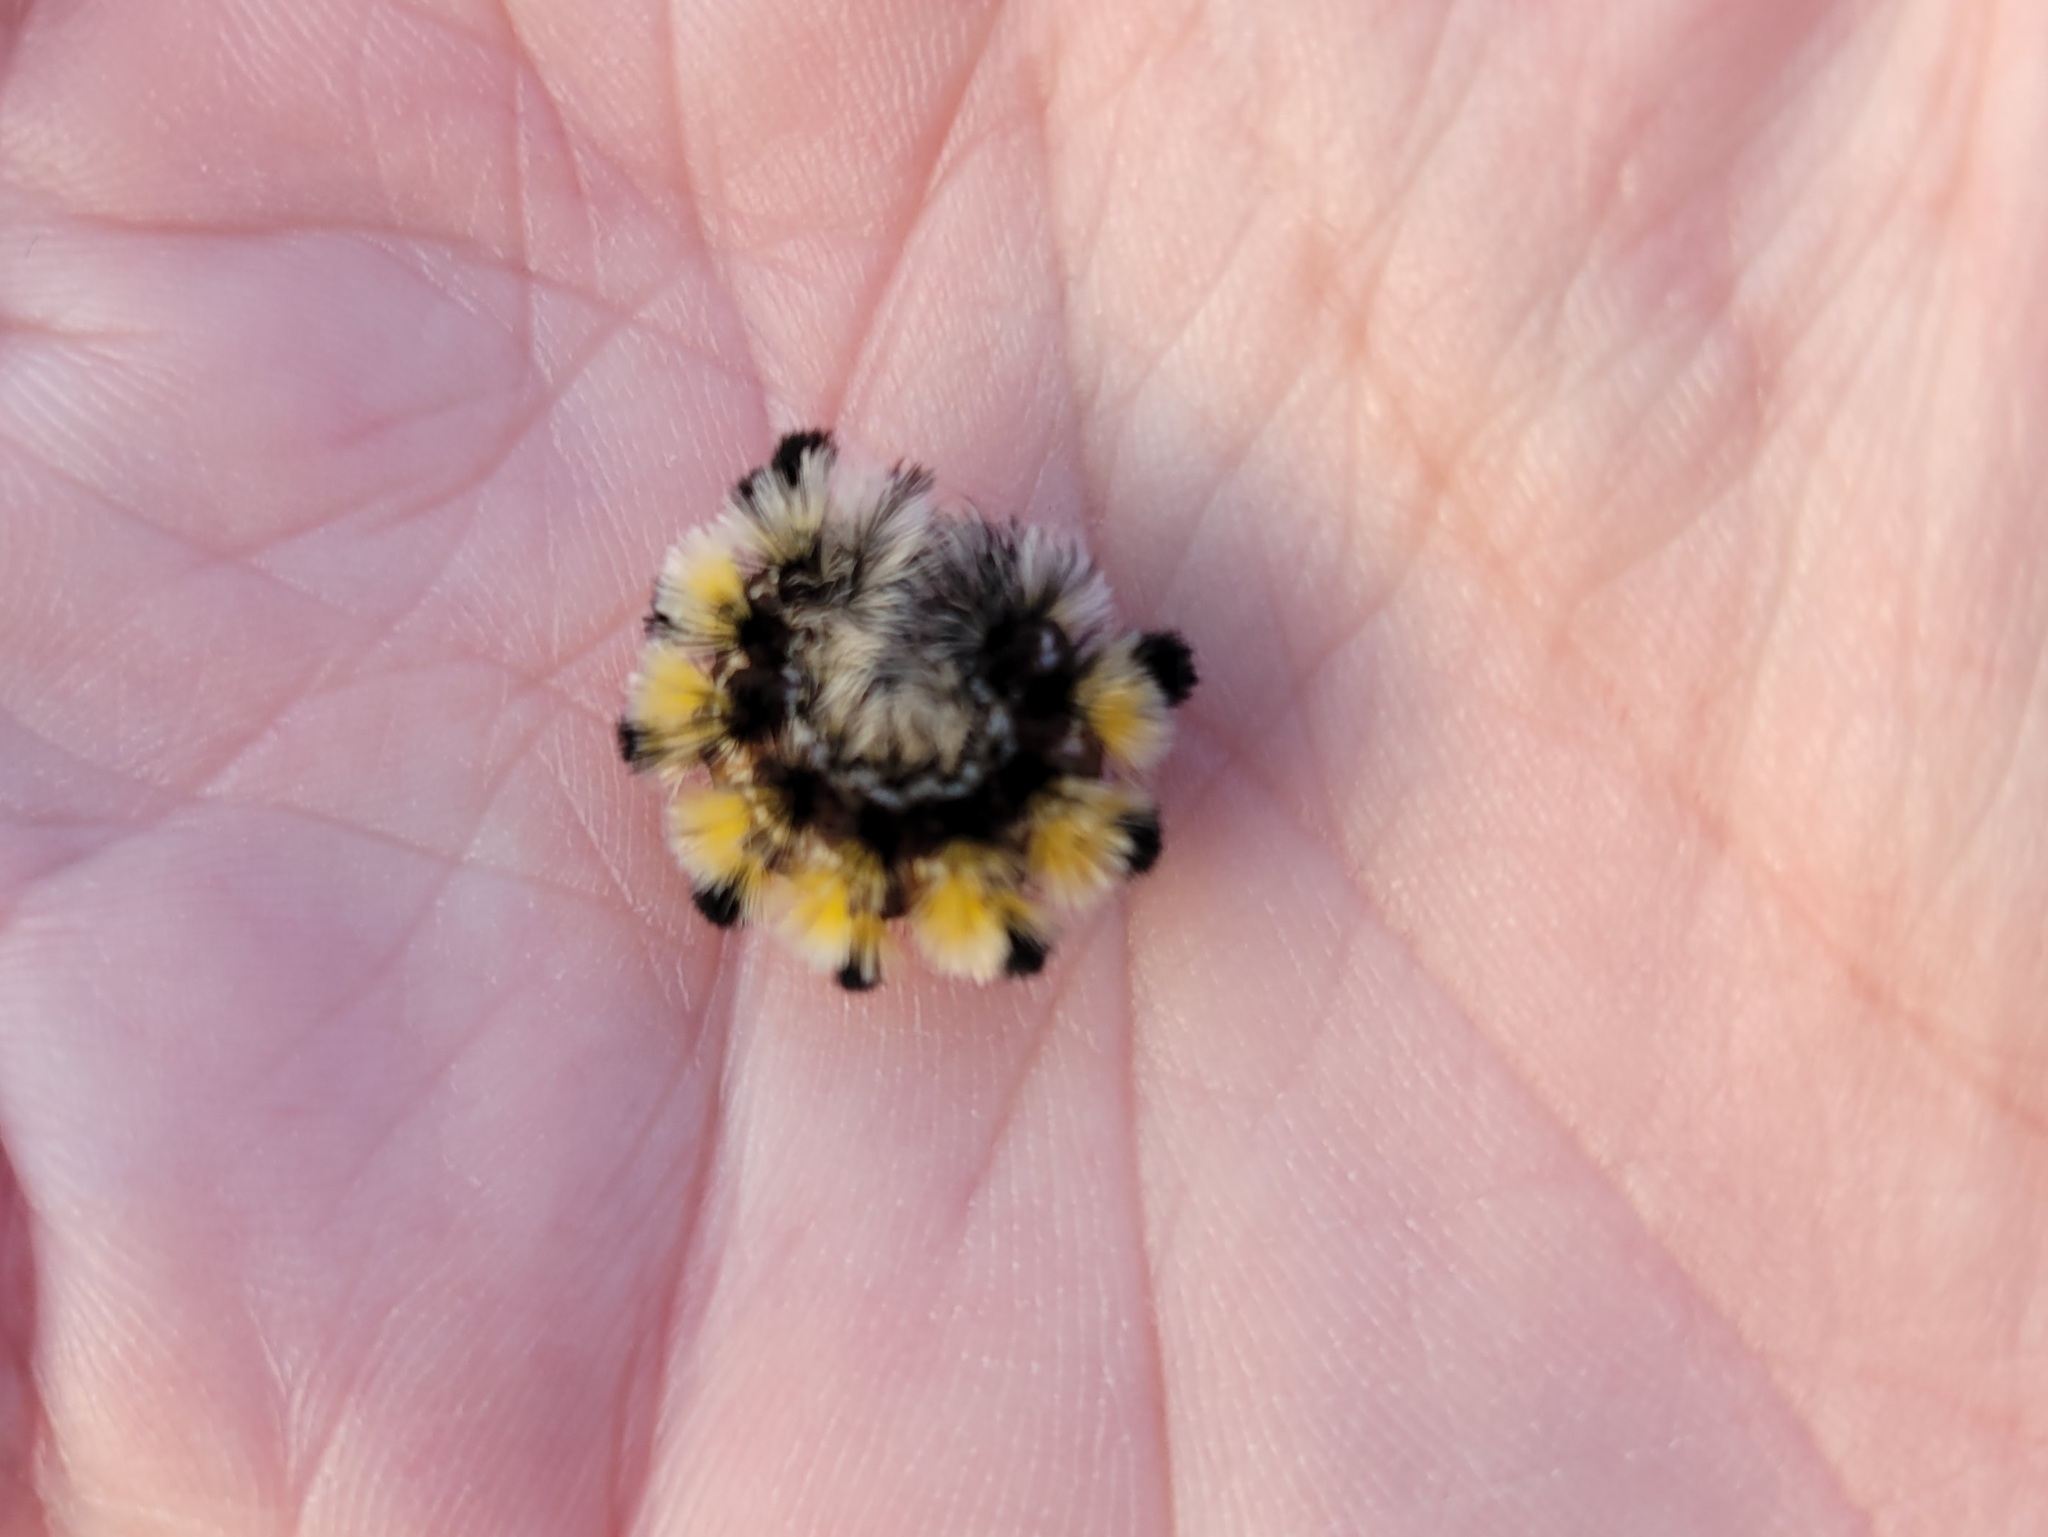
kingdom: Animalia
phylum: Arthropoda
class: Insecta
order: Lepidoptera
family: Erebidae
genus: Ctenucha
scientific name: Ctenucha virginica
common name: Virginia ctenucha moth
